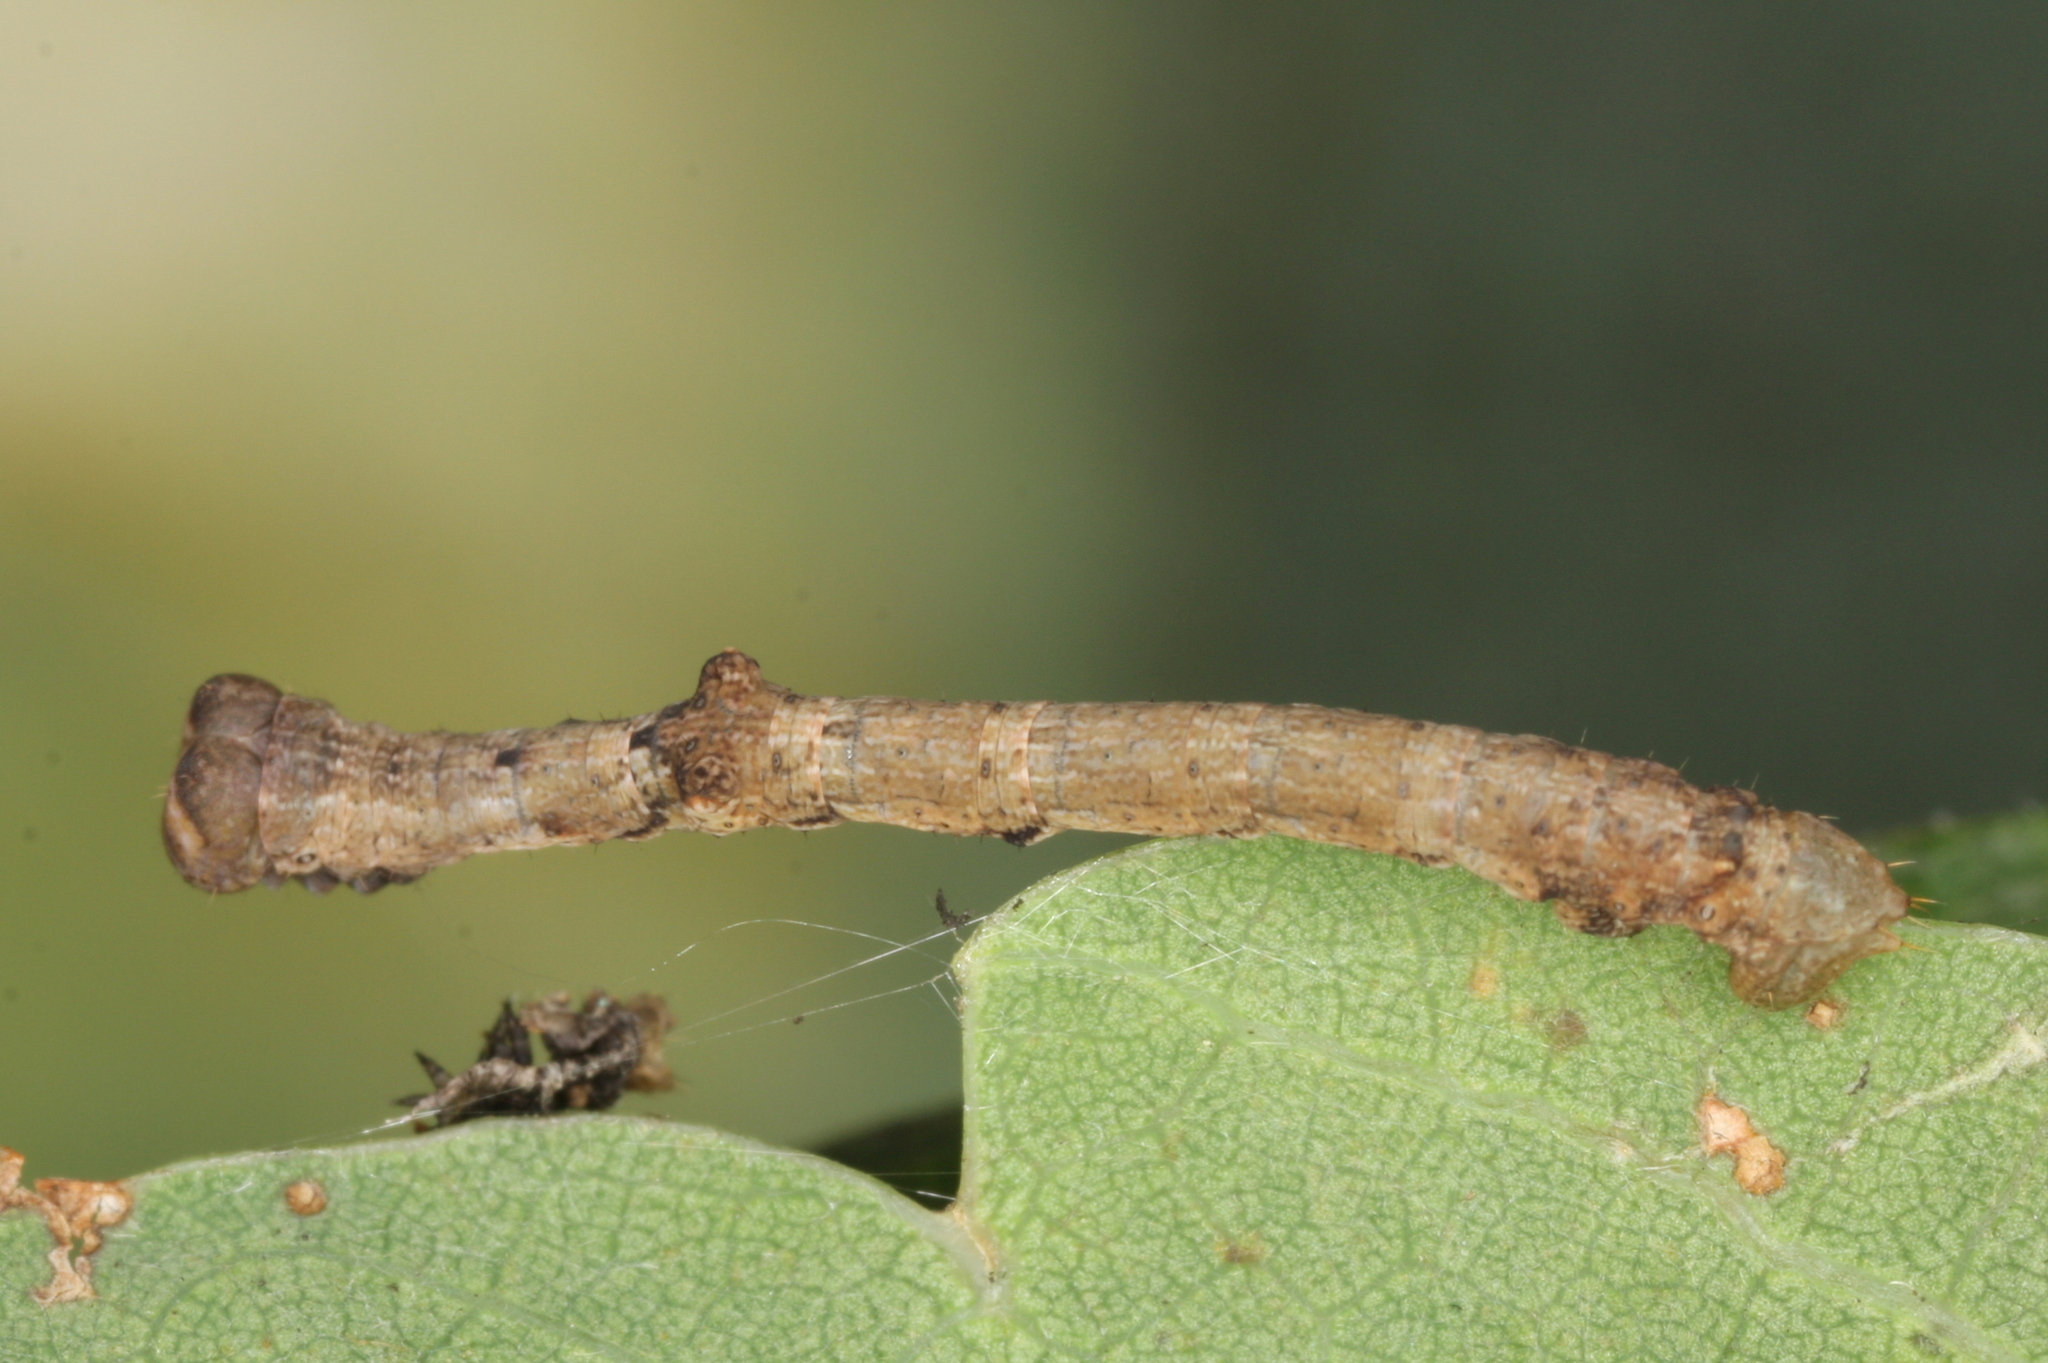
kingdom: Animalia
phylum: Arthropoda
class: Insecta
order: Lepidoptera
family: Geometridae
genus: Hypomecis
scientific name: Hypomecis punctinalis
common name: Pale oak beauty
